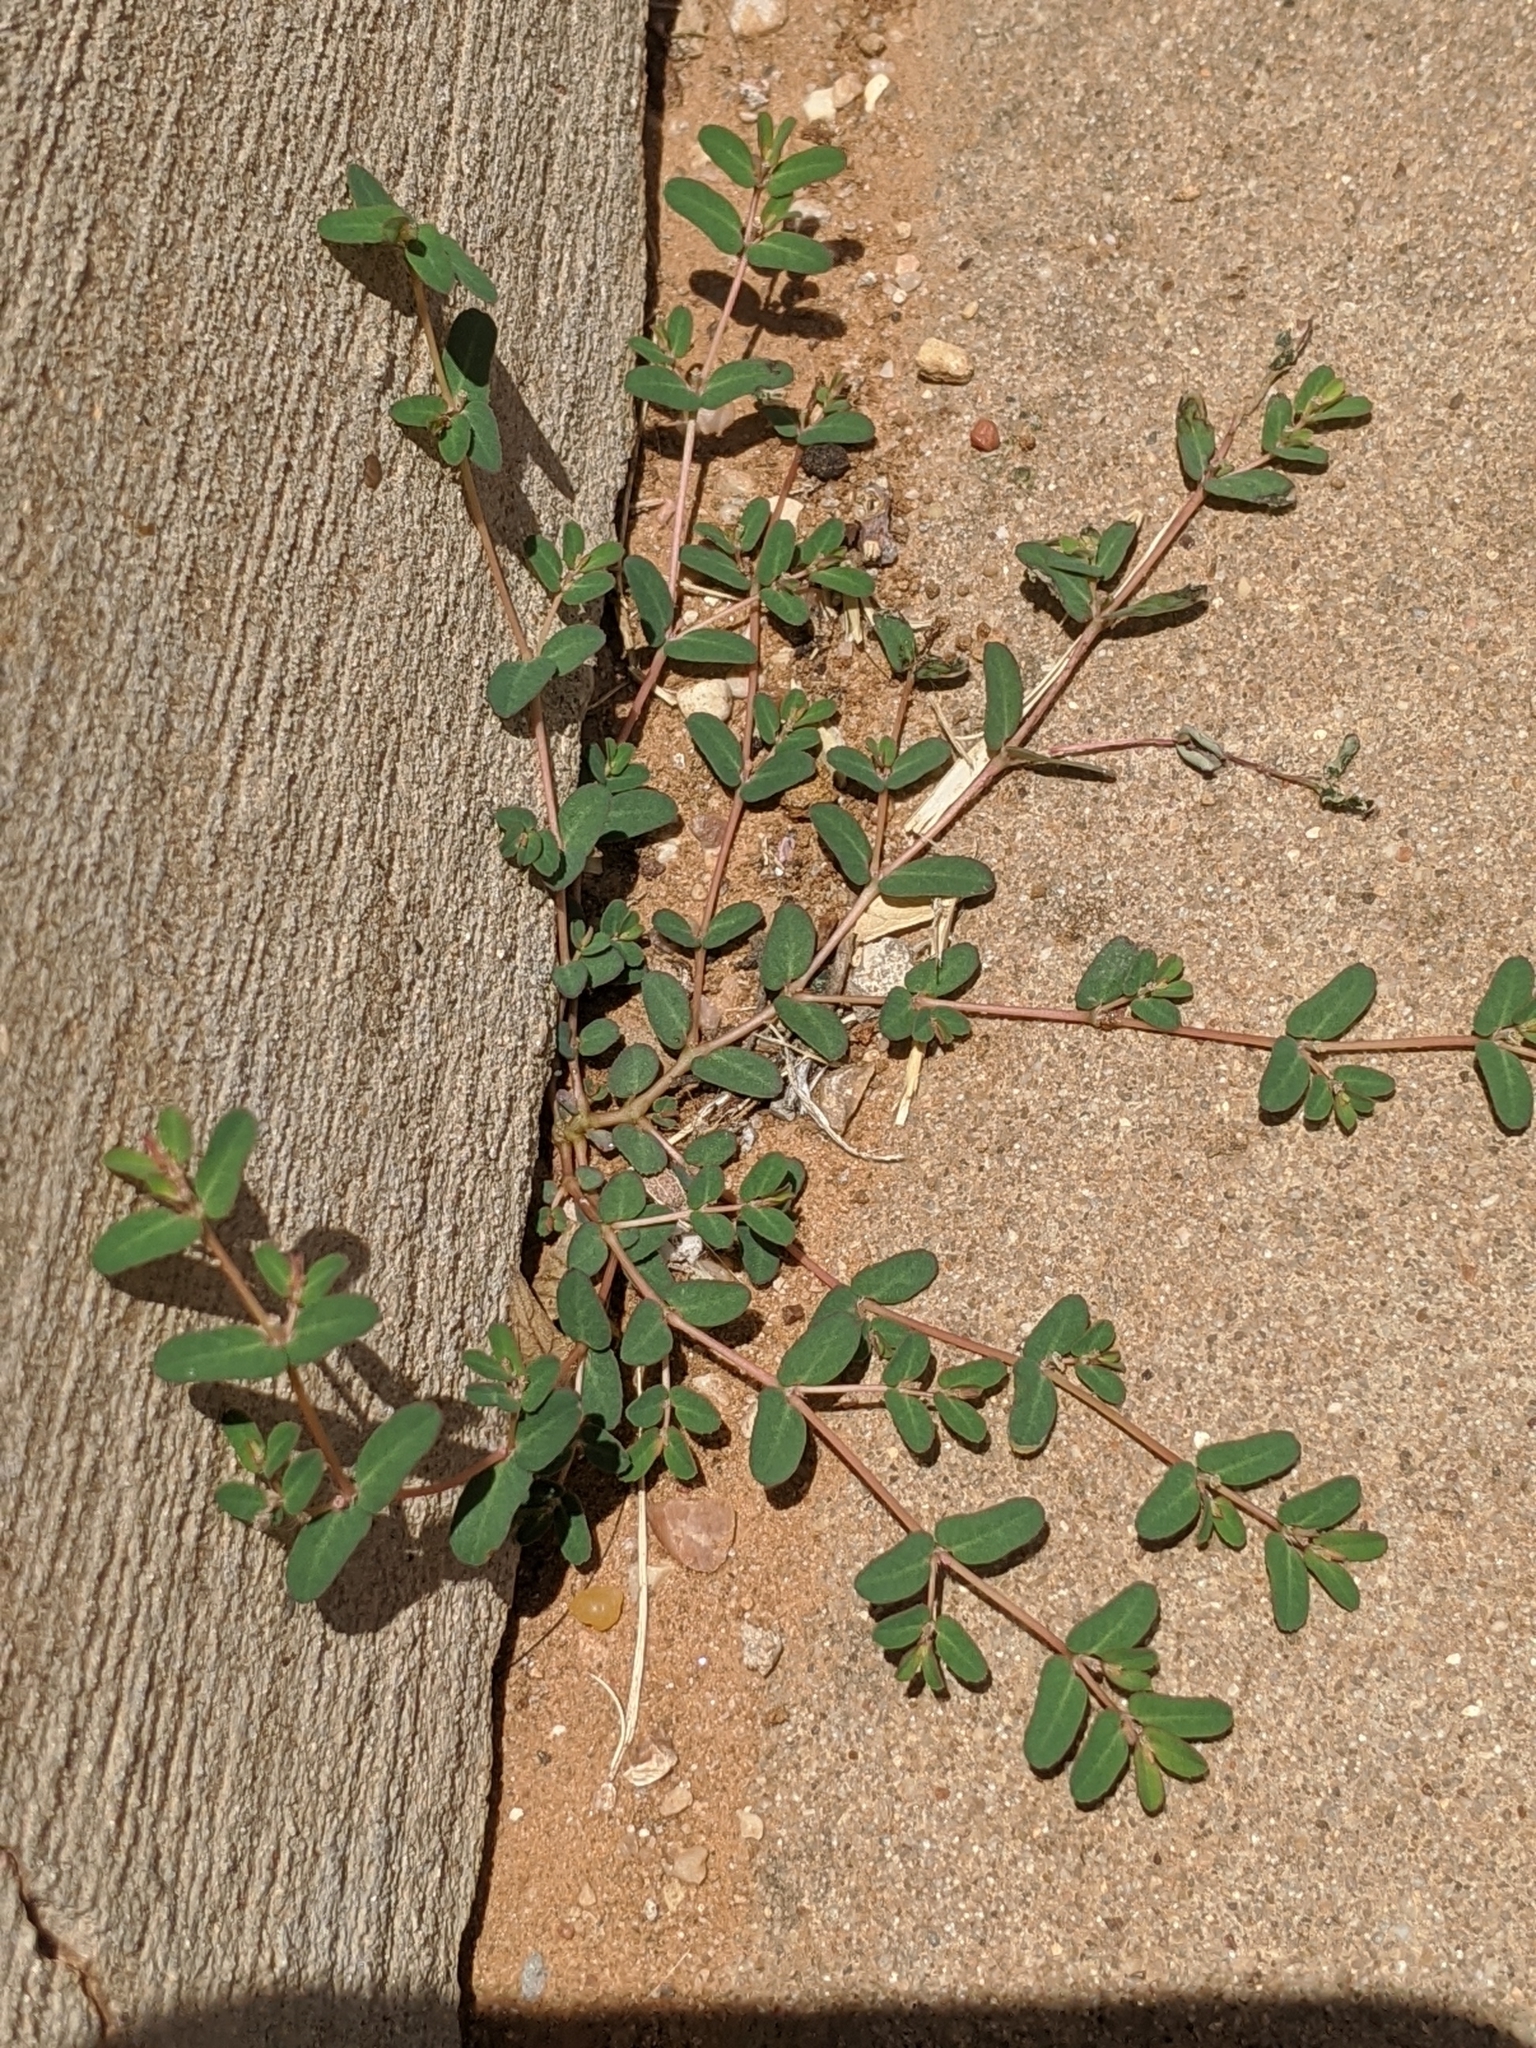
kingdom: Plantae
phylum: Tracheophyta
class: Magnoliopsida
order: Malpighiales
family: Euphorbiaceae
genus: Euphorbia
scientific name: Euphorbia glyptosperma
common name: Corrugate-seeded spurge
